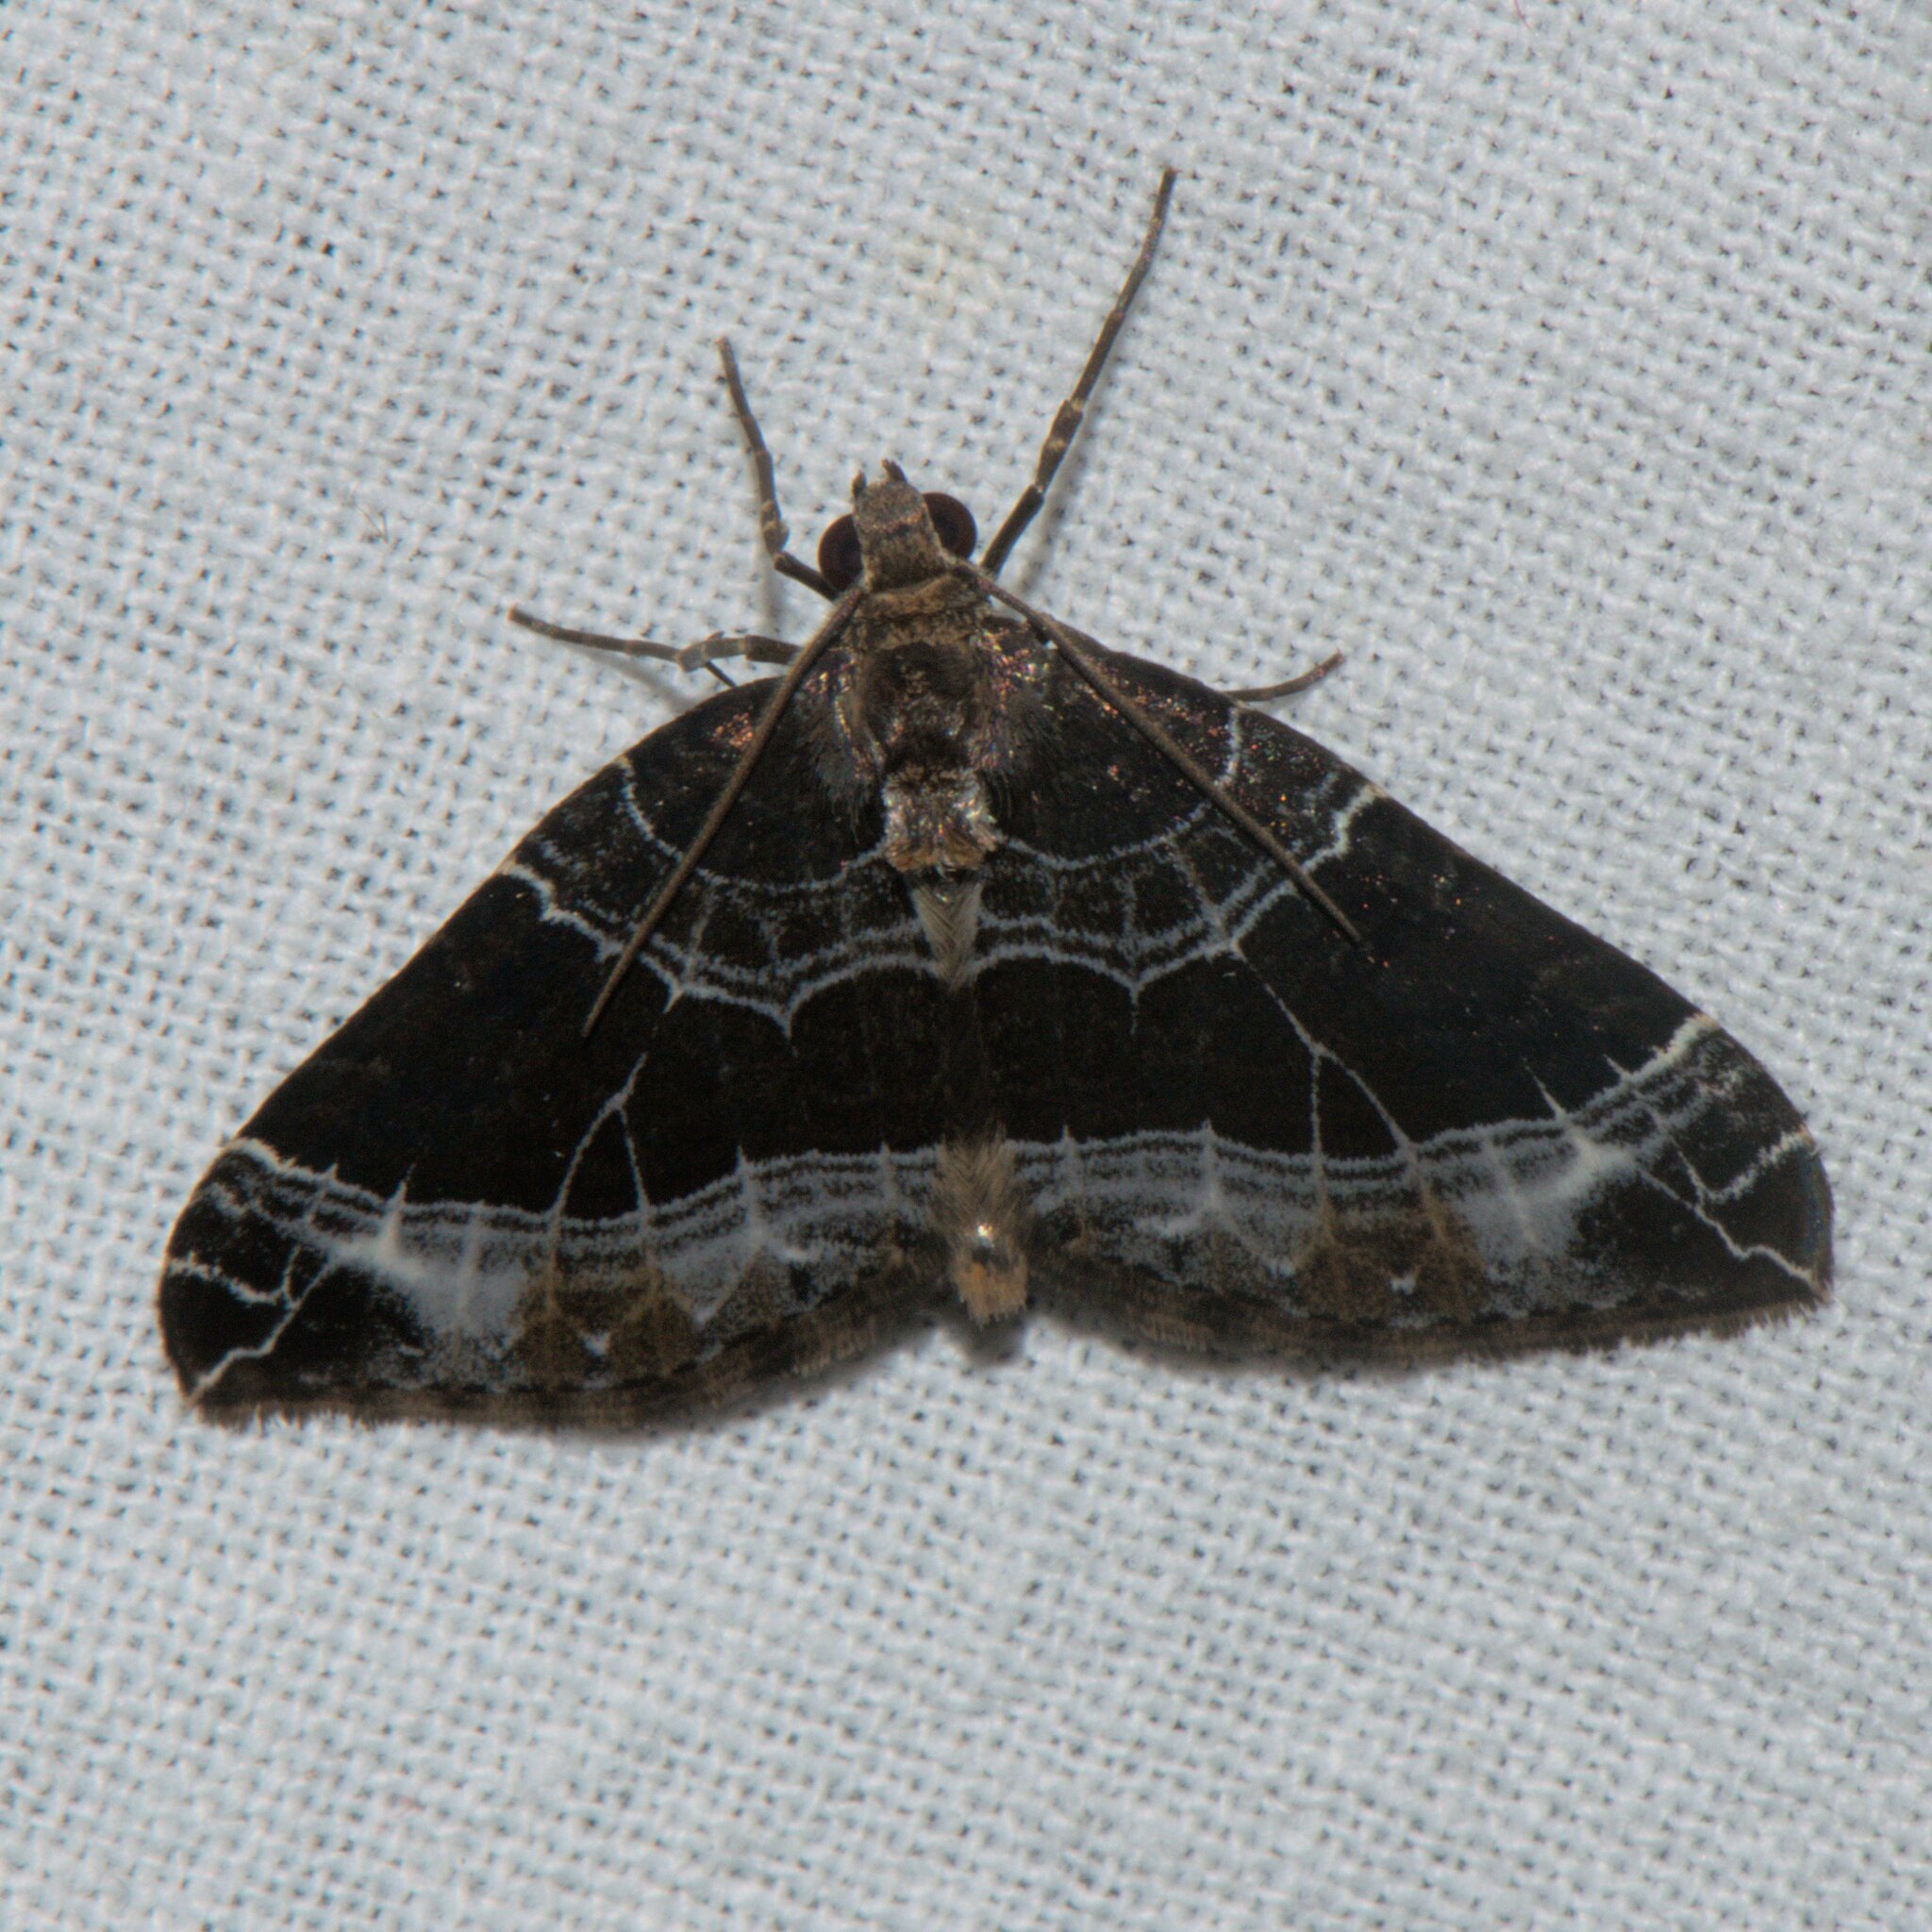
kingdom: Animalia
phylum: Arthropoda
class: Insecta
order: Lepidoptera
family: Geometridae
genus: Lampropteryx
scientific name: Lampropteryx argentilineata
